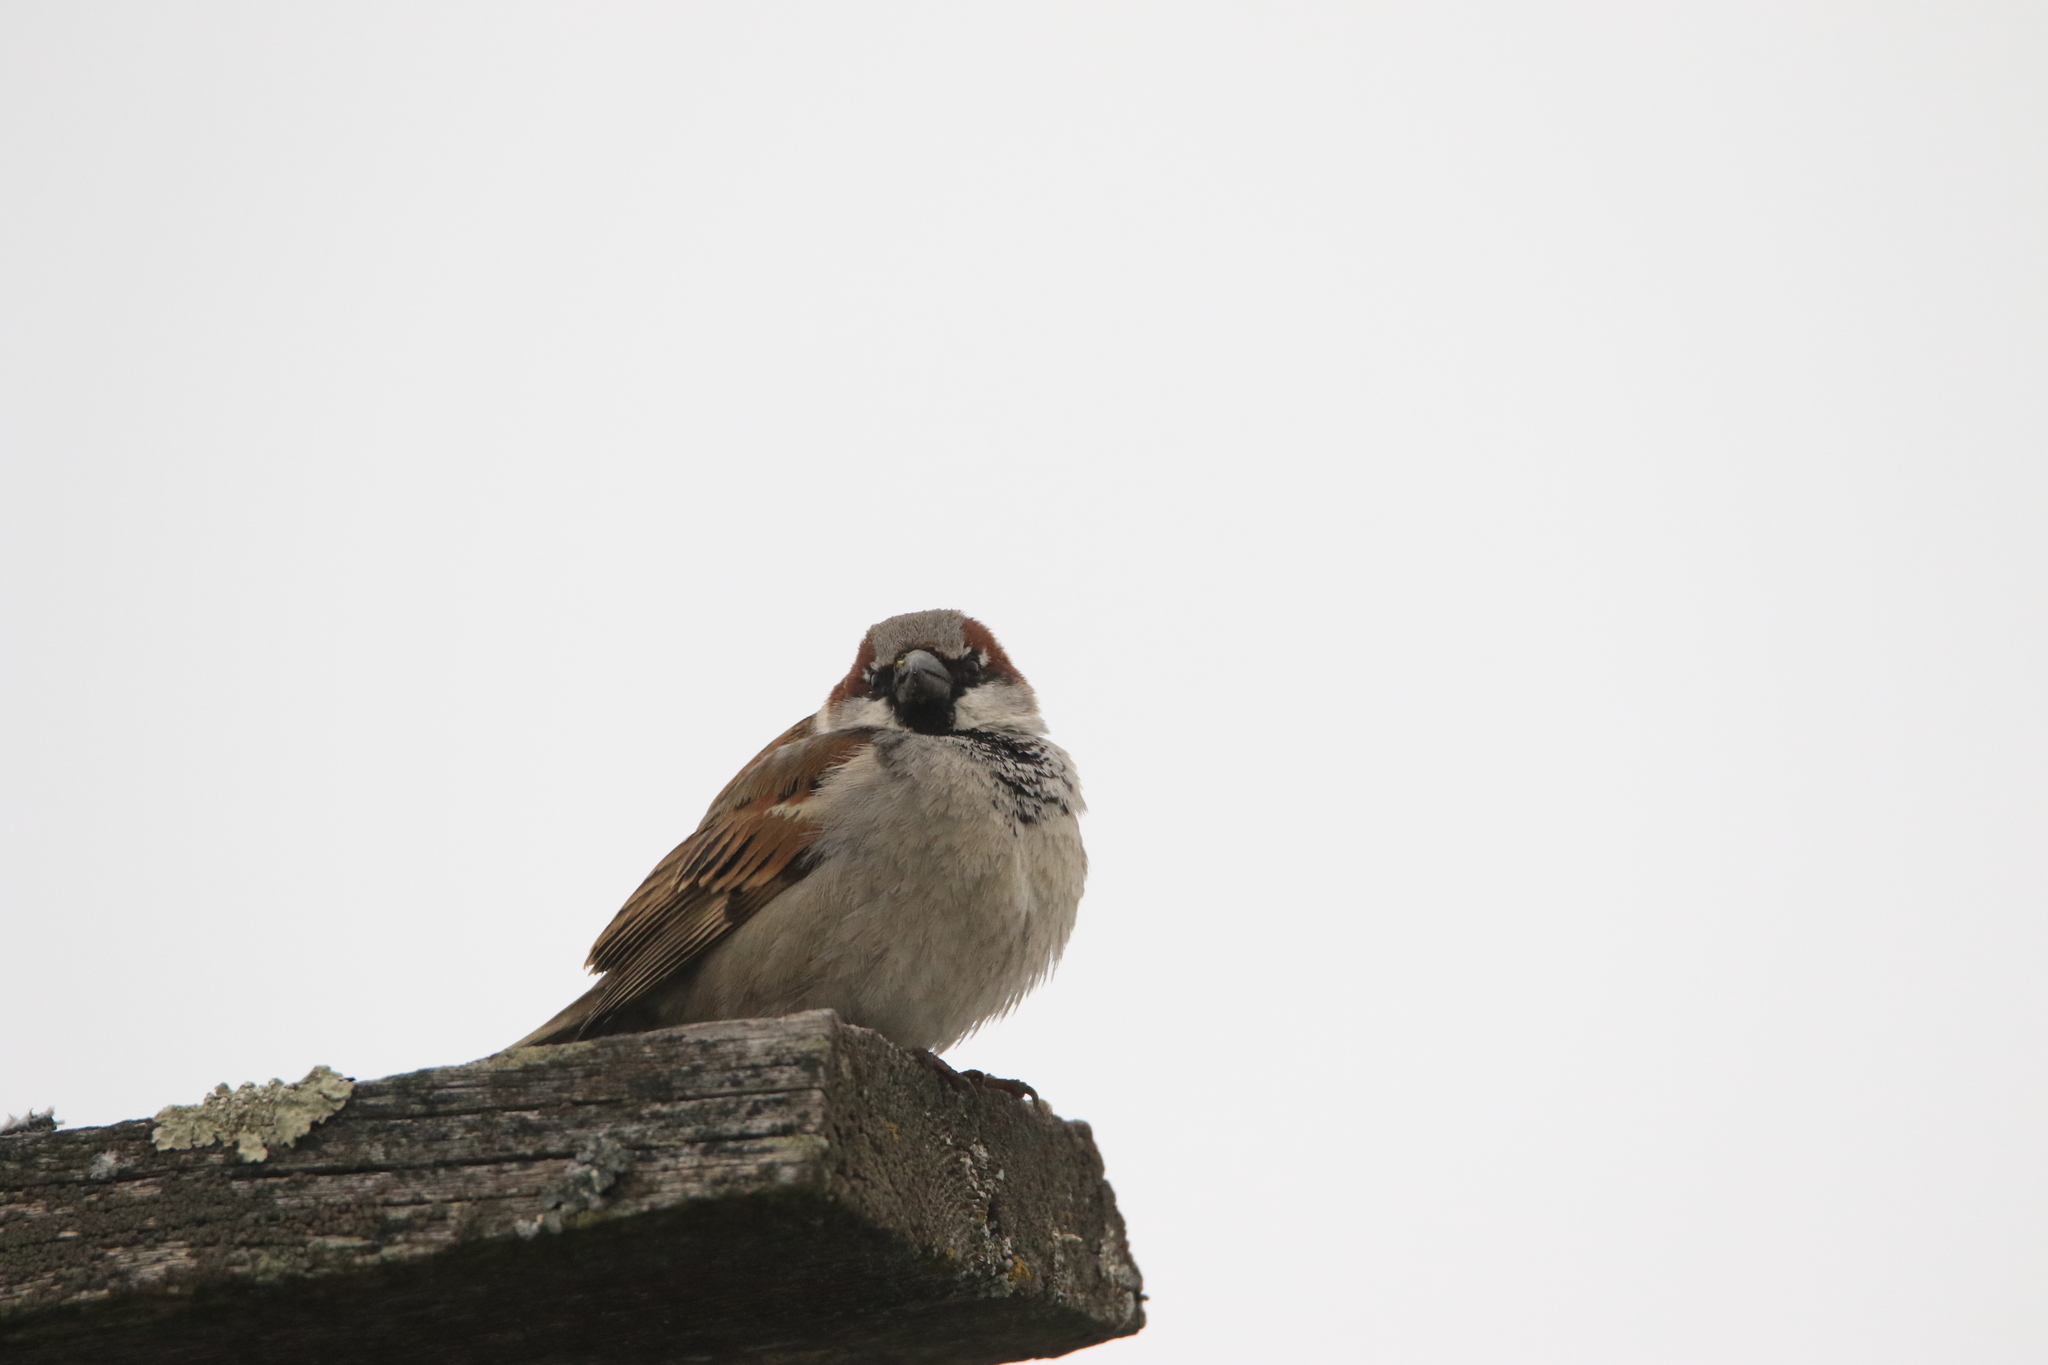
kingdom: Animalia
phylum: Chordata
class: Aves
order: Passeriformes
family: Passeridae
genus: Passer
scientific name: Passer domesticus
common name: House sparrow
